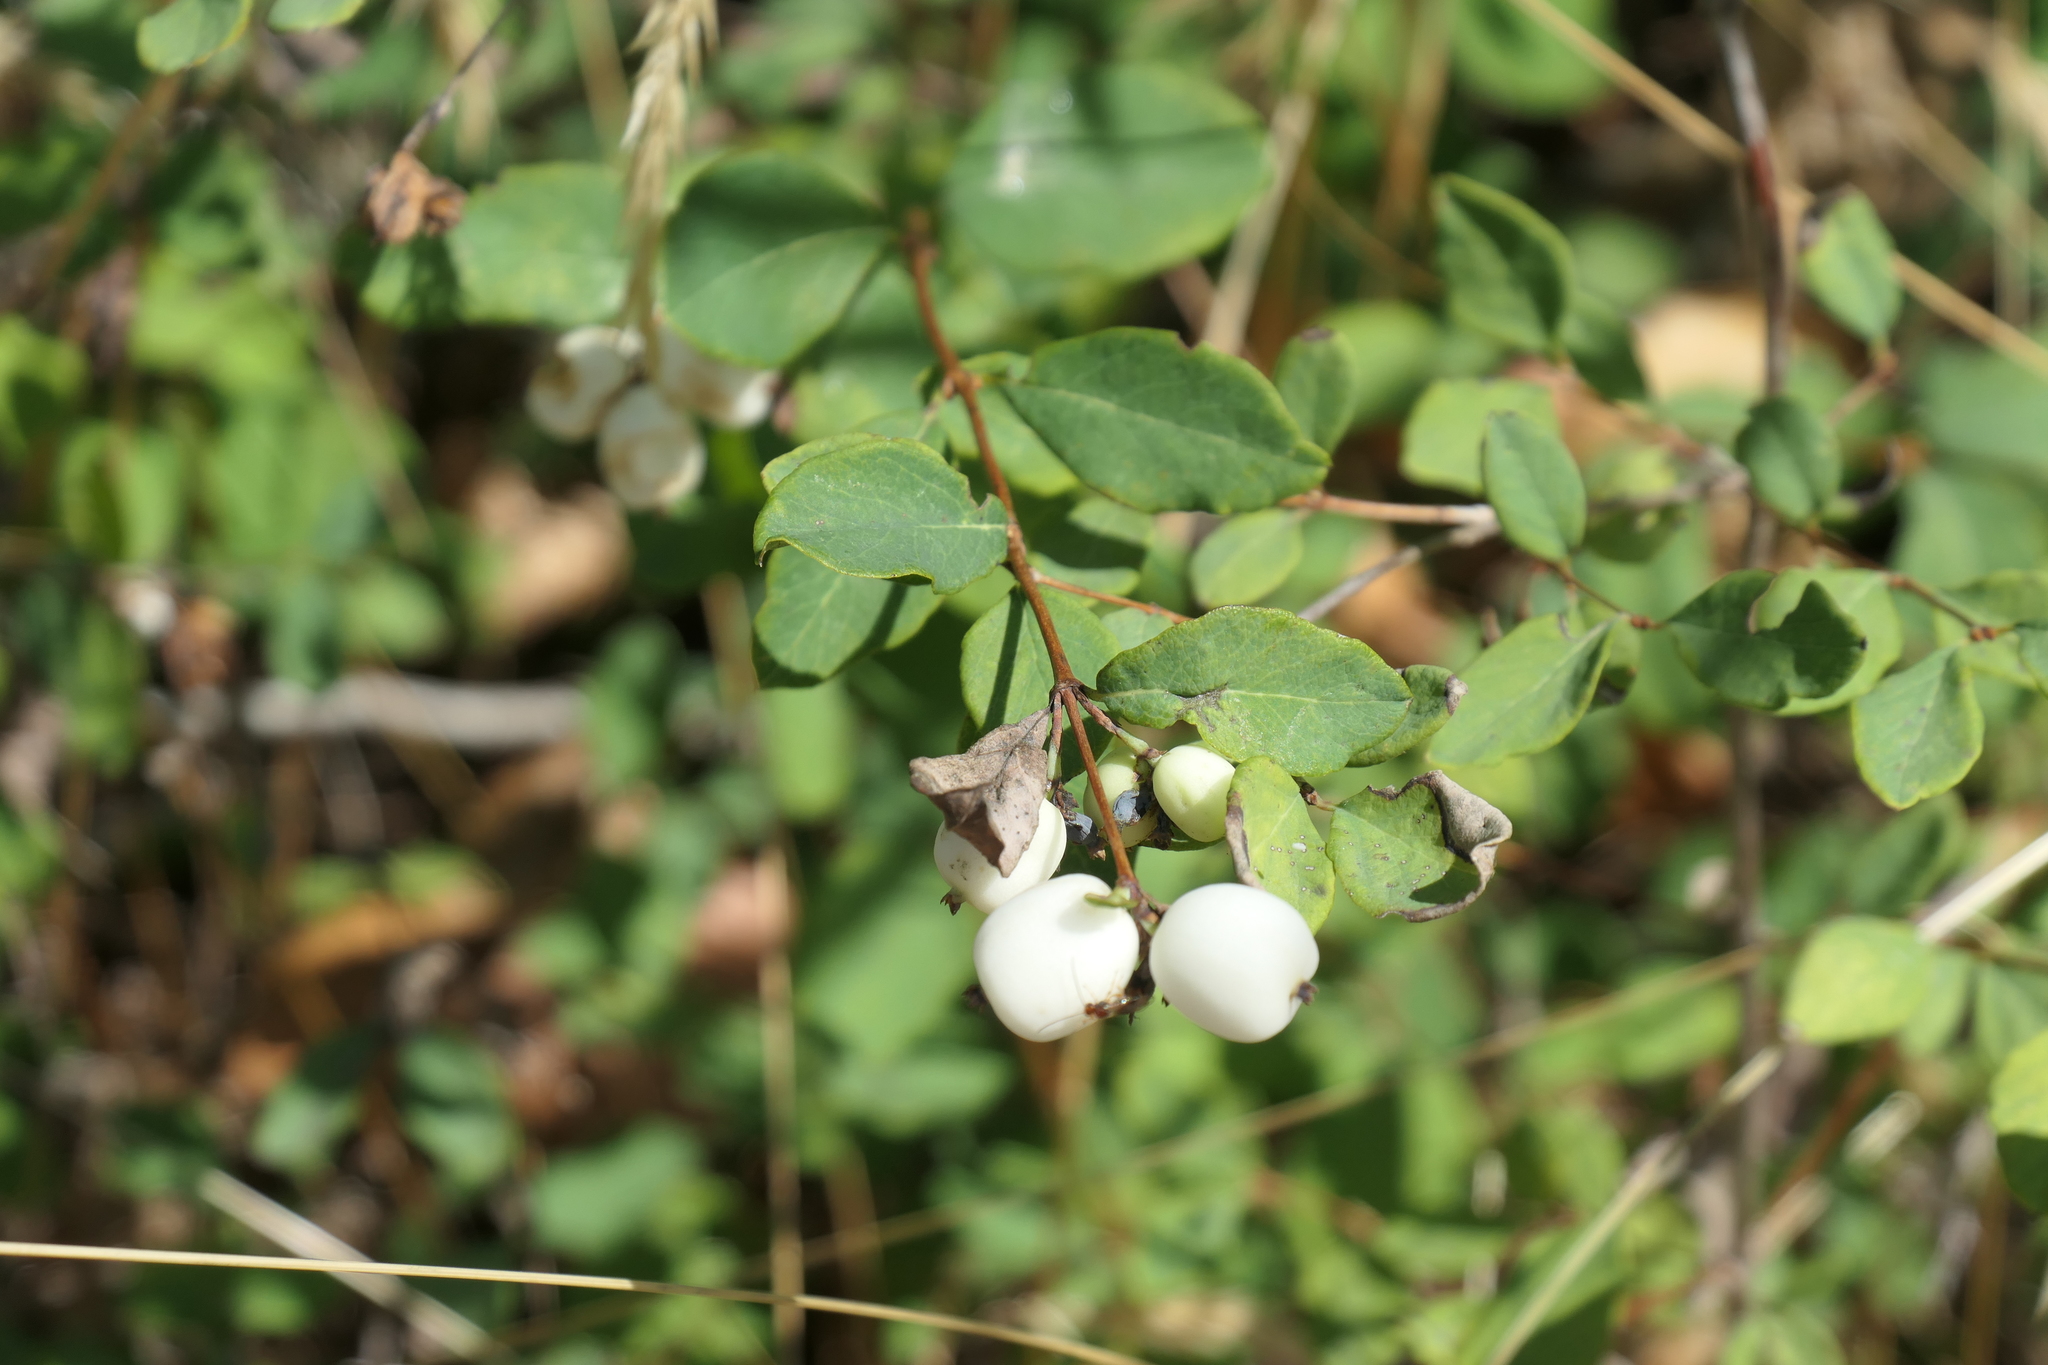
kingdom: Plantae
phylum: Tracheophyta
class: Magnoliopsida
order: Dipsacales
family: Caprifoliaceae
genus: Symphoricarpos
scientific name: Symphoricarpos albus
